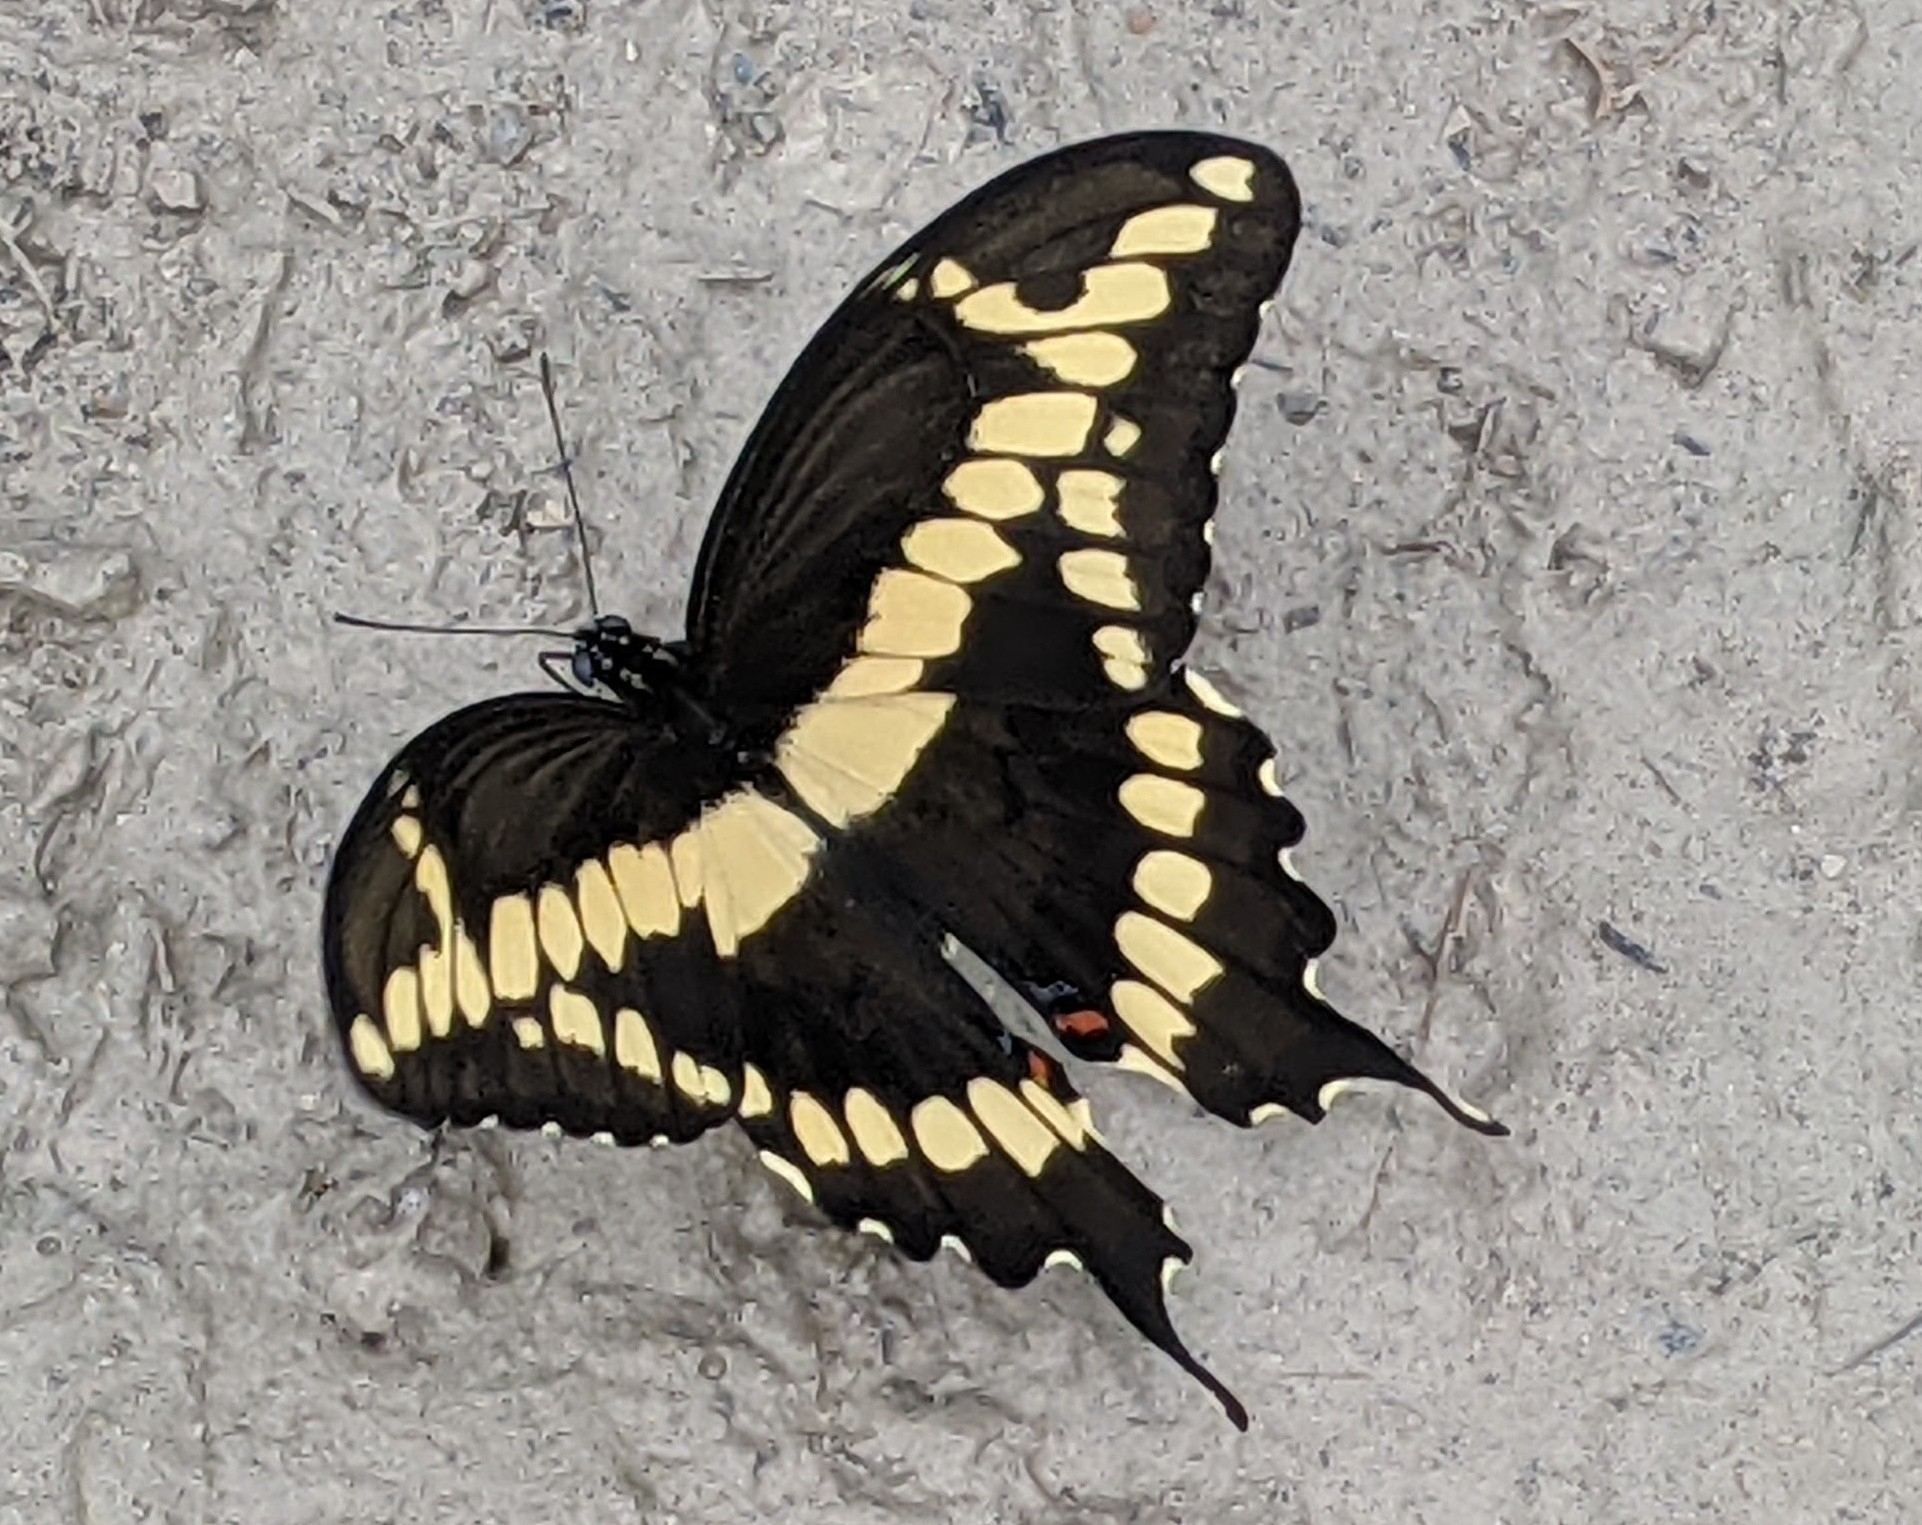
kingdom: Animalia
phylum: Arthropoda
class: Insecta
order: Lepidoptera
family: Papilionidae
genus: Papilio
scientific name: Papilio cresphontes
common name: Giant swallowtail
